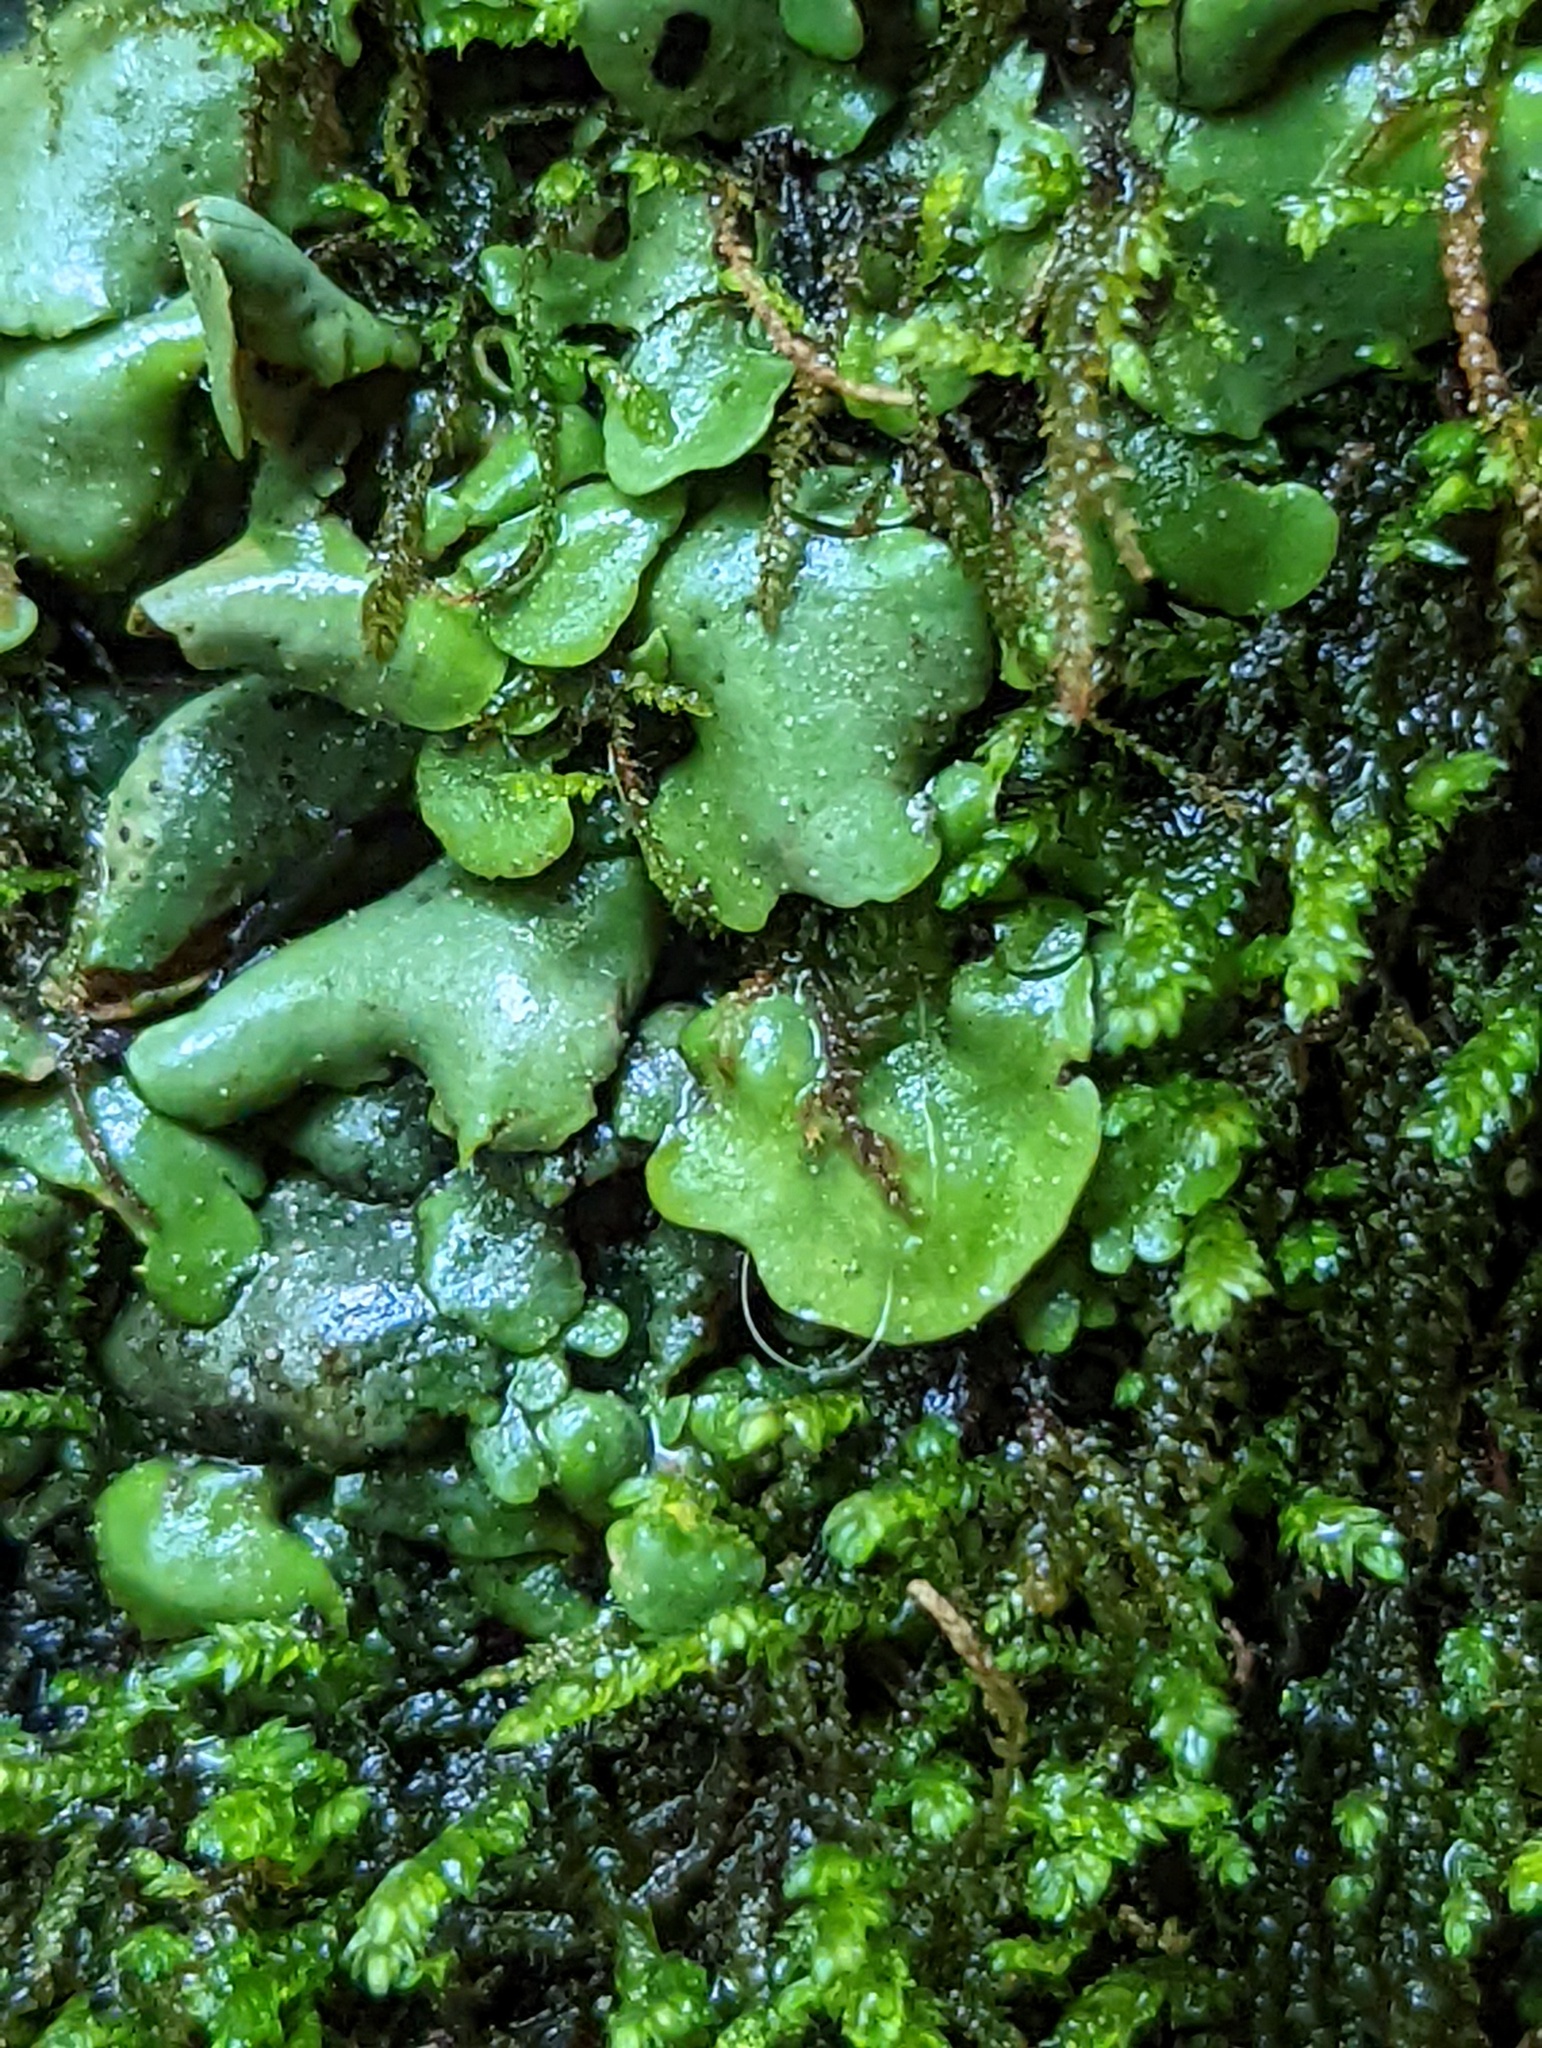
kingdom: Fungi
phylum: Ascomycota
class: Eurotiomycetes
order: Verrucariales
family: Verrucariaceae
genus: Dermatocarpon
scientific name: Dermatocarpon luridum
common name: Brook stippleback lichen
